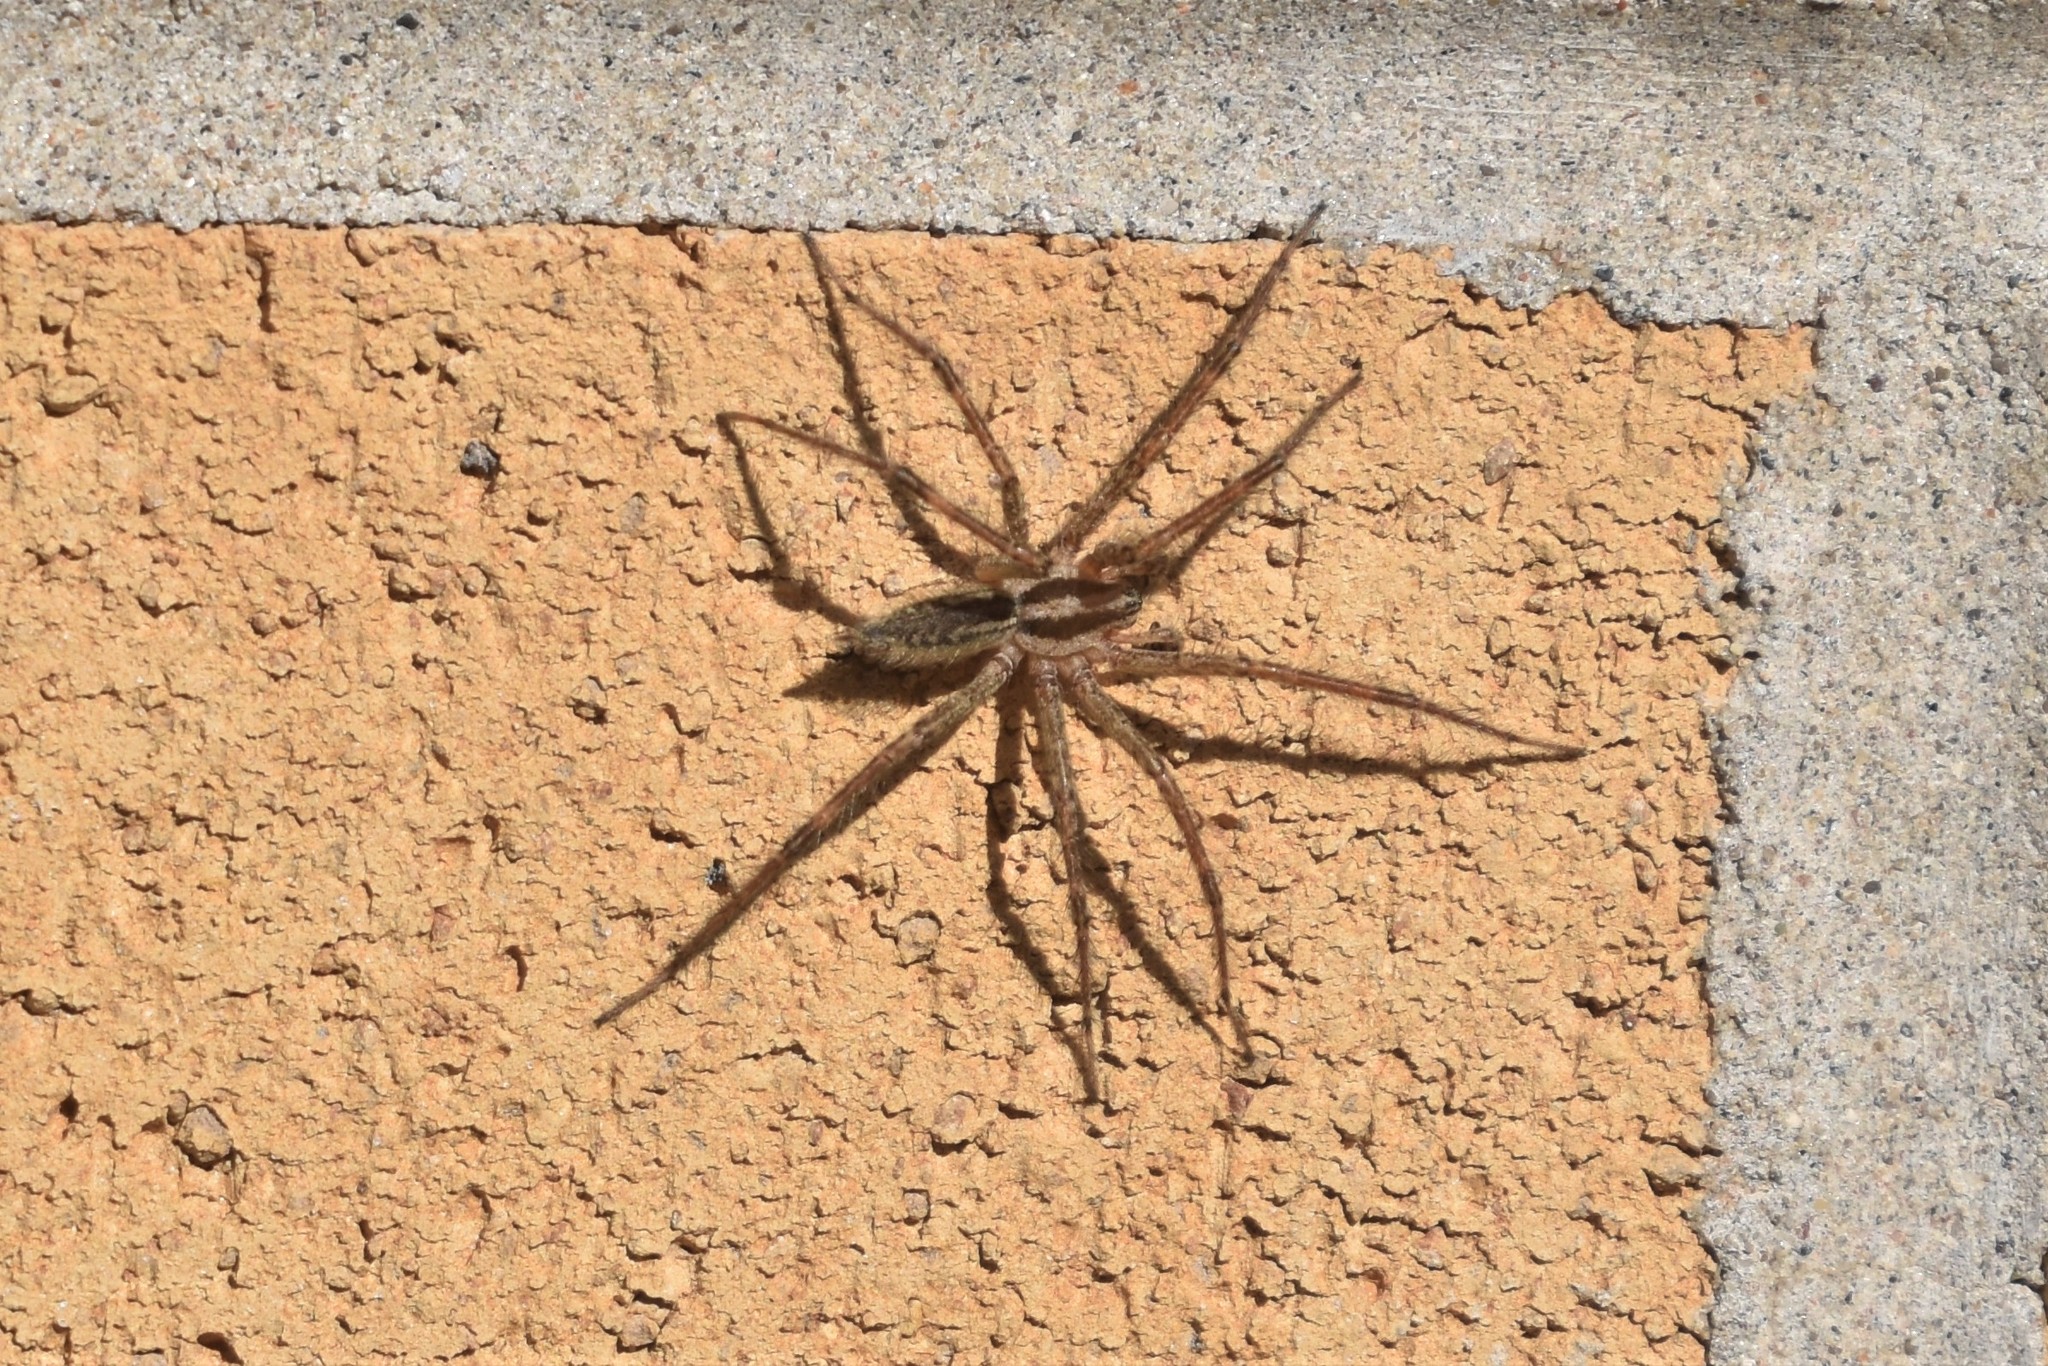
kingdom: Animalia
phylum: Arthropoda
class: Arachnida
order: Araneae
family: Agelenidae
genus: Agelenopsis
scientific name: Agelenopsis
